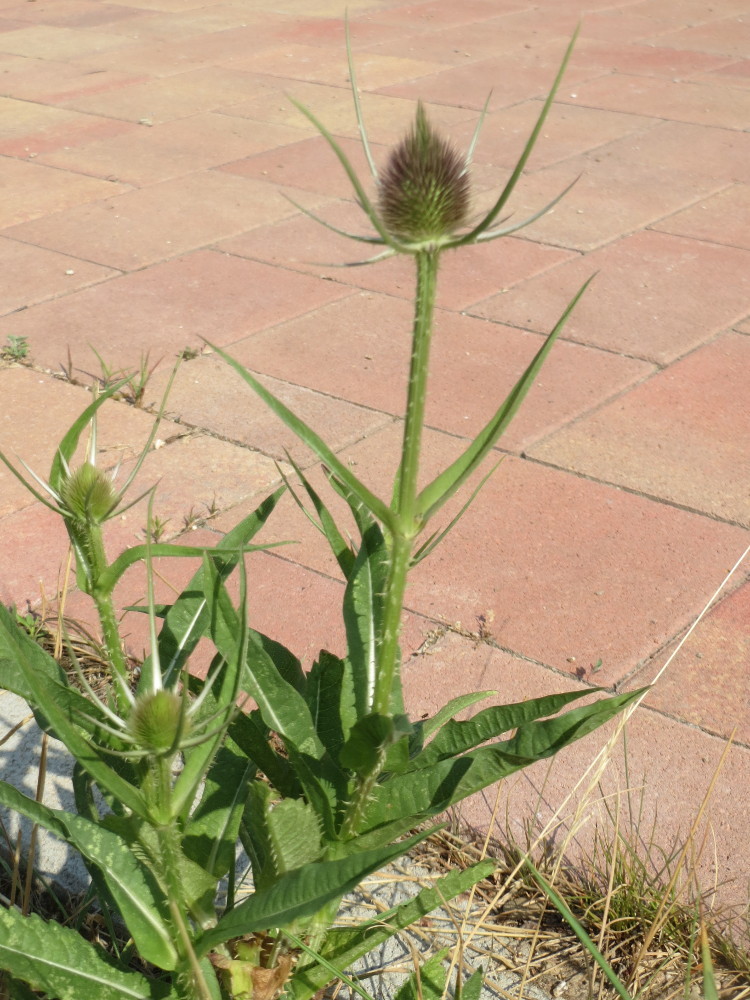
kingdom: Plantae
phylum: Tracheophyta
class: Magnoliopsida
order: Dipsacales
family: Caprifoliaceae
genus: Dipsacus
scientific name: Dipsacus fullonum
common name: Teasel
